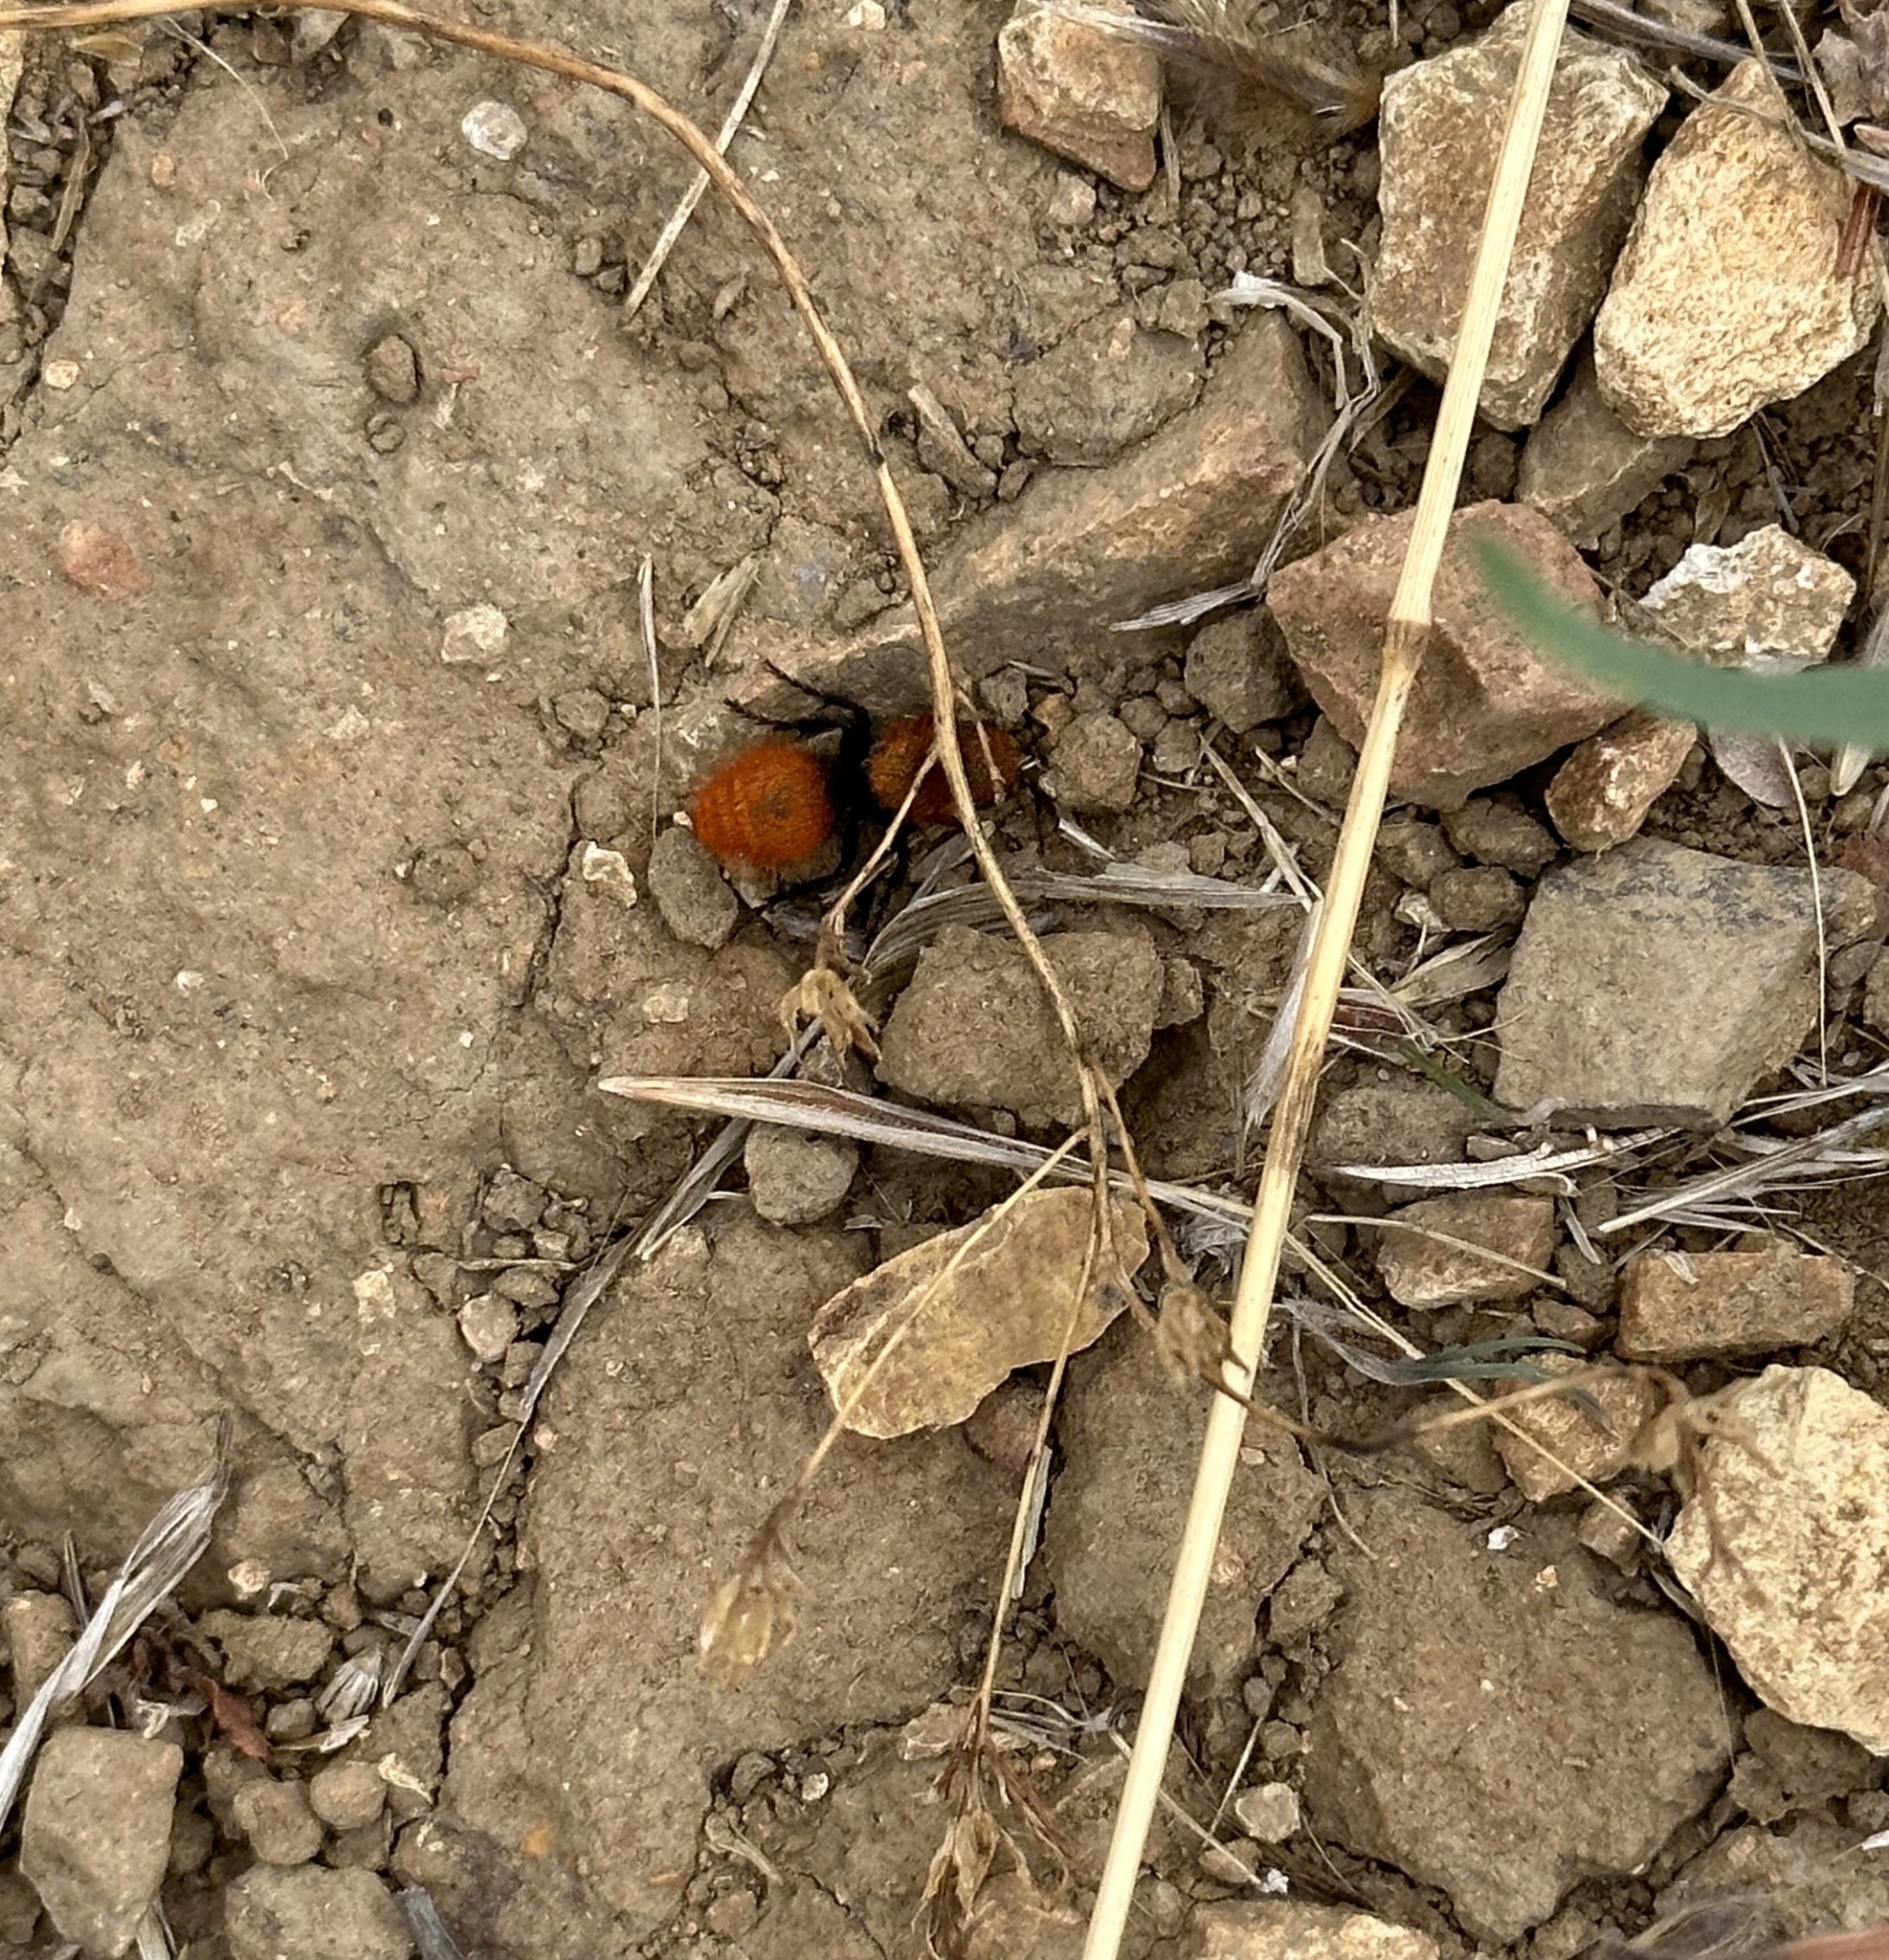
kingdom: Animalia
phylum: Arthropoda
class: Insecta
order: Hymenoptera
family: Mutillidae
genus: Dasymutilla
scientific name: Dasymutilla
